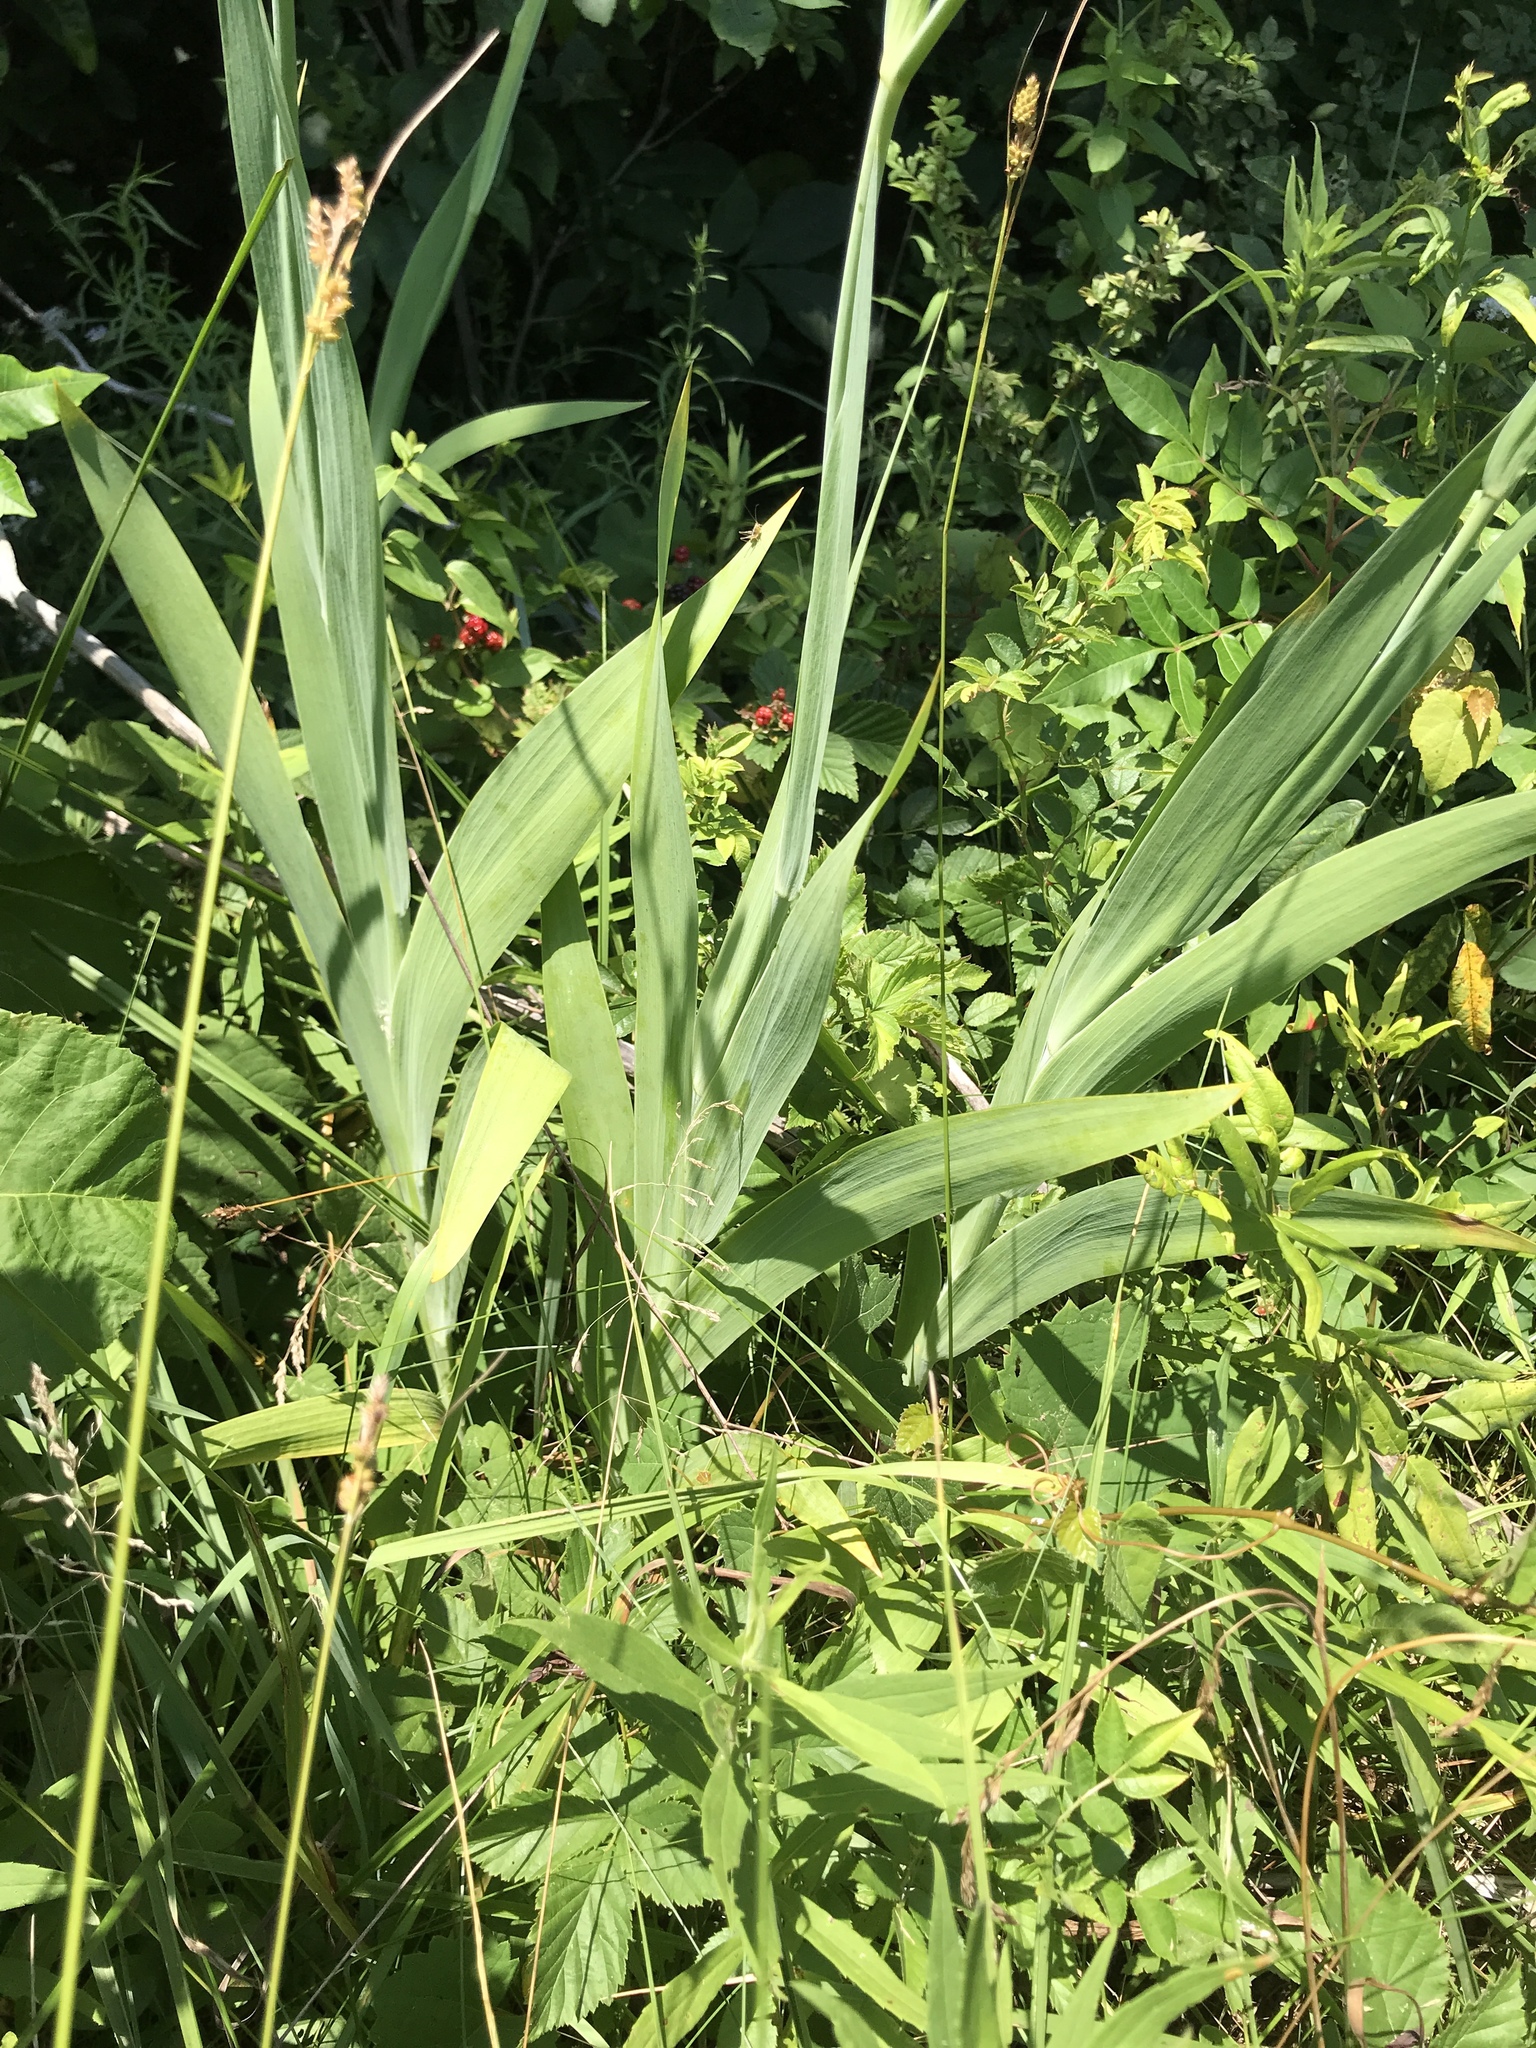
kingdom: Plantae
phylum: Tracheophyta
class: Liliopsida
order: Asparagales
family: Iridaceae
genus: Iris
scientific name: Iris domestica
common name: Belamcanda
